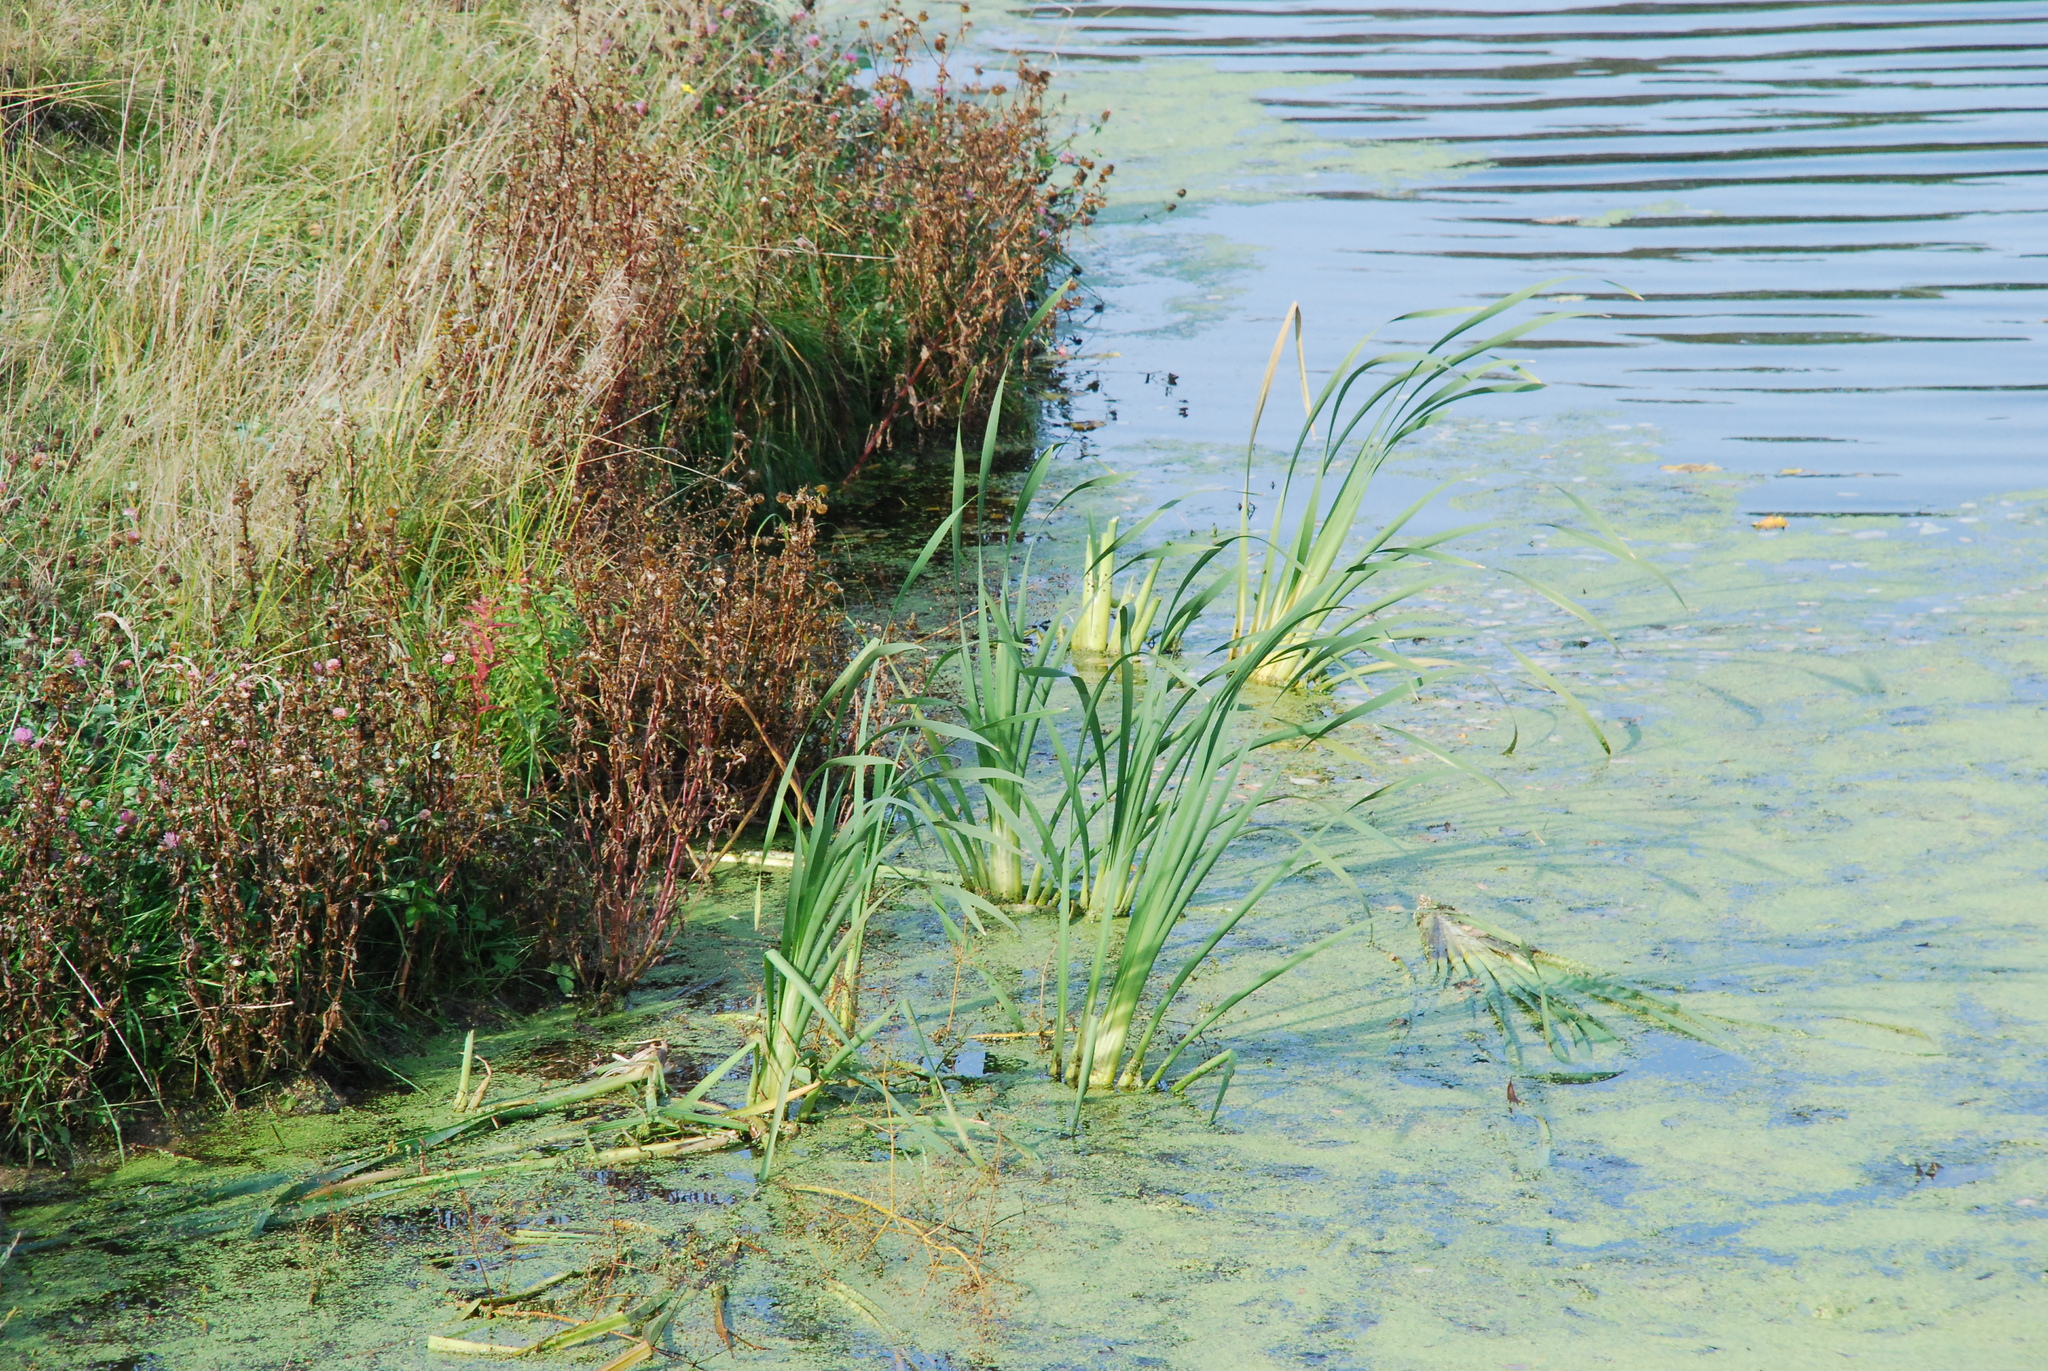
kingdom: Plantae
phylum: Tracheophyta
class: Liliopsida
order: Poales
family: Typhaceae
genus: Typha
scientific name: Typha latifolia
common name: Broadleaf cattail
